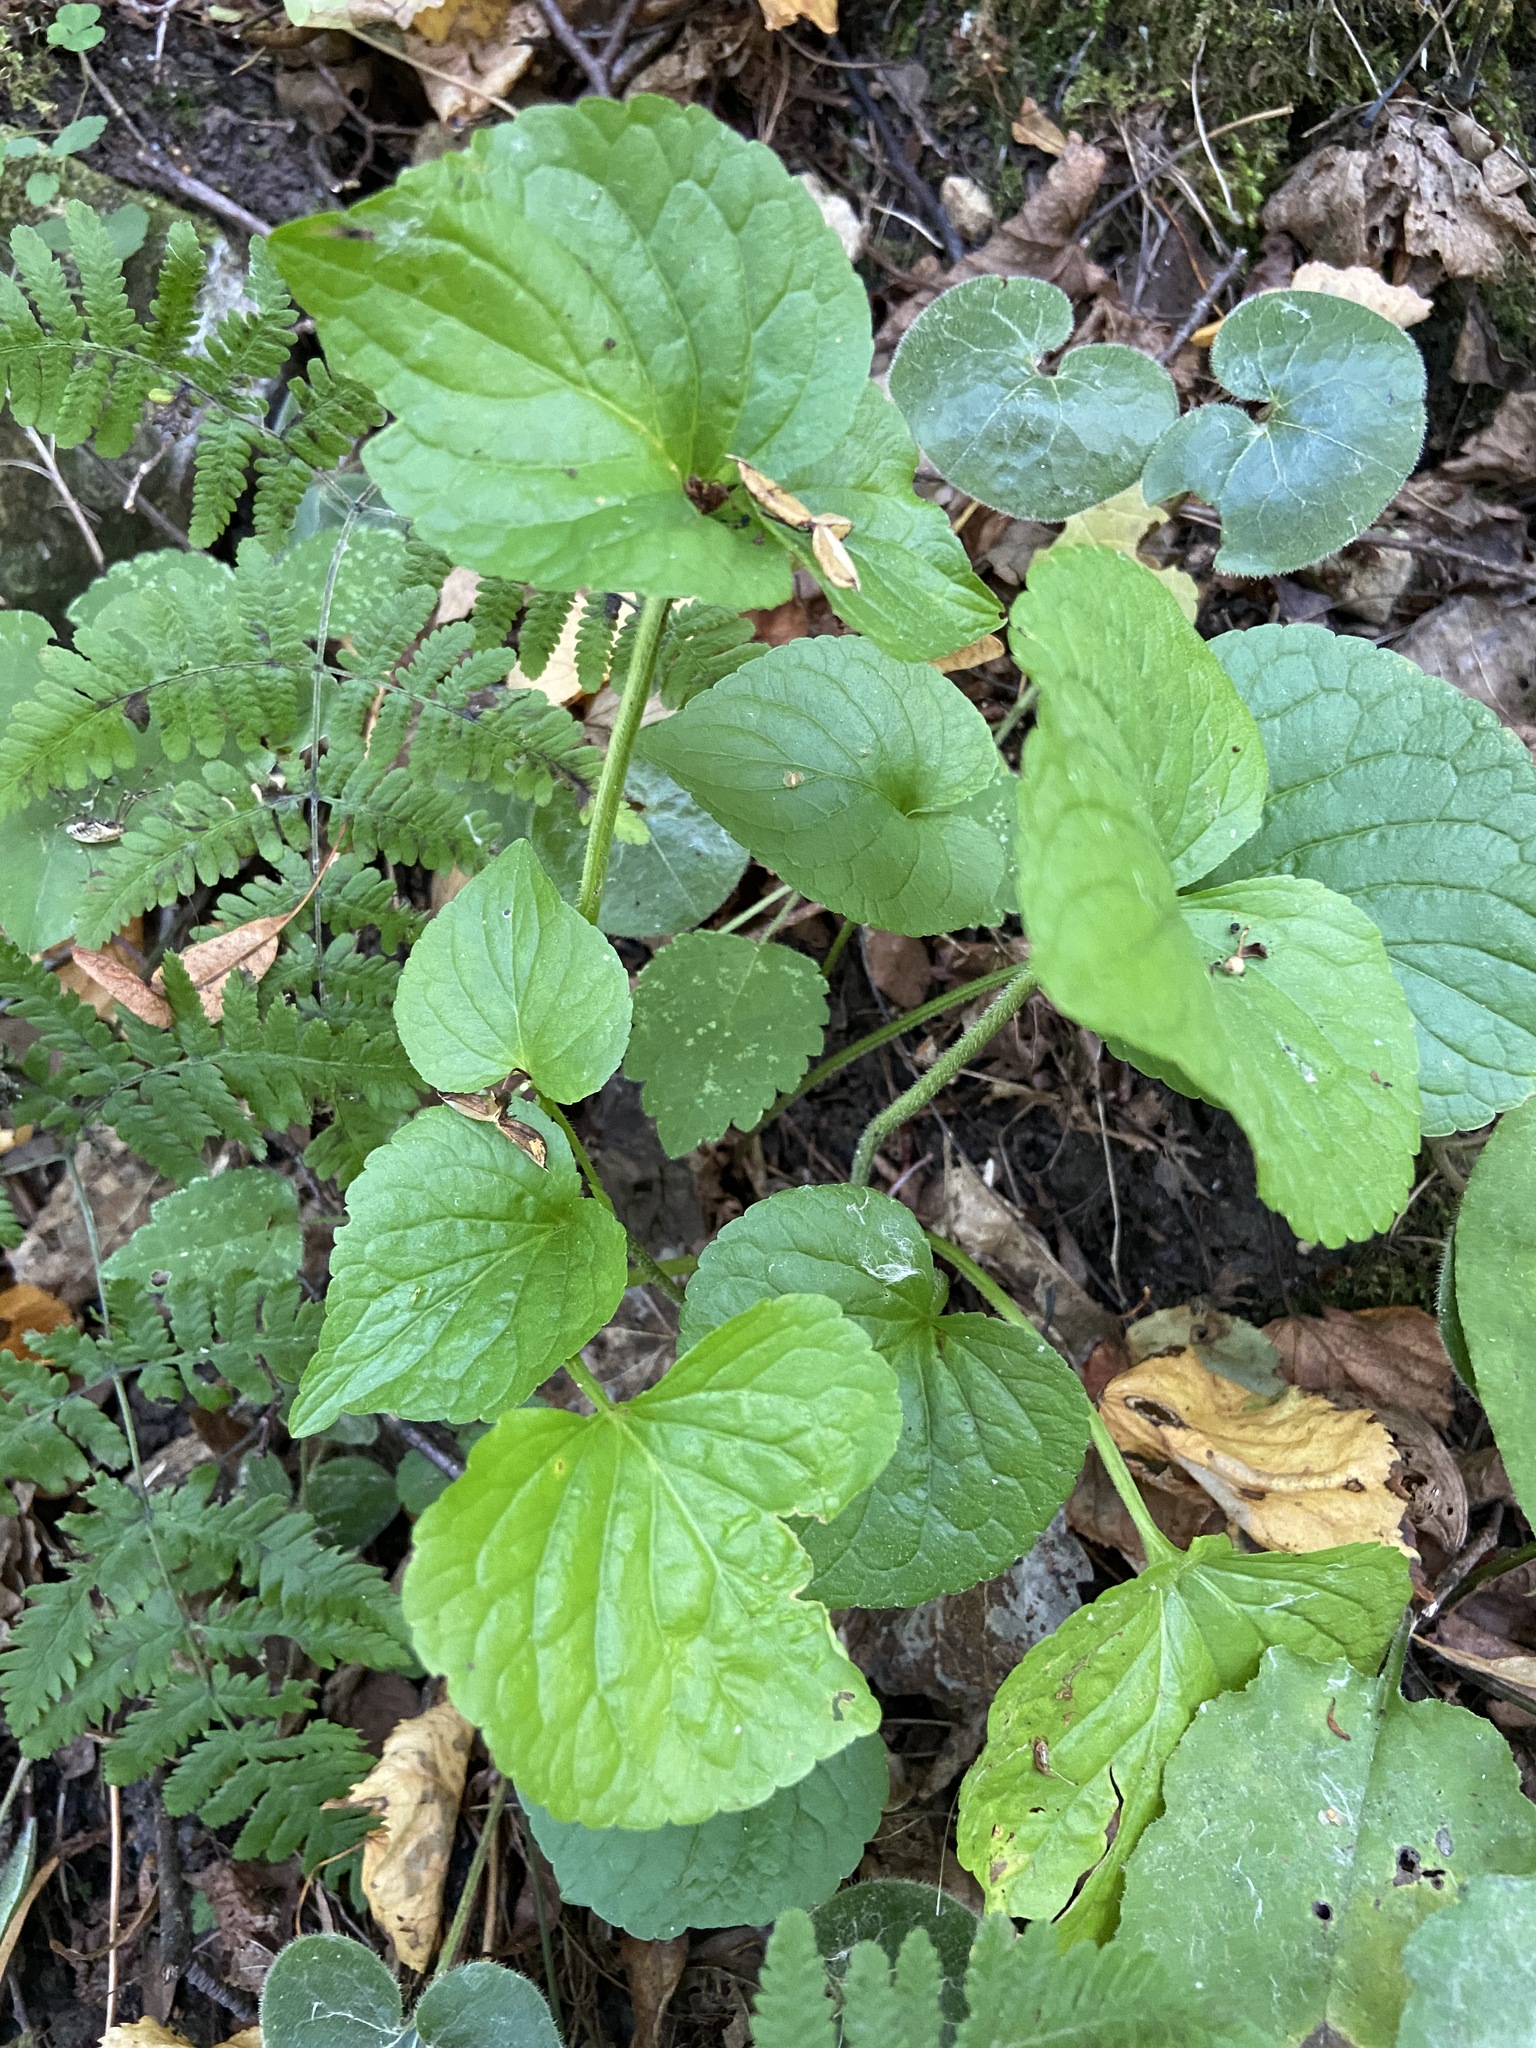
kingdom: Plantae
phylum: Tracheophyta
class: Magnoliopsida
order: Malpighiales
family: Violaceae
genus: Viola
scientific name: Viola mirabilis
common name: Wonder violet
